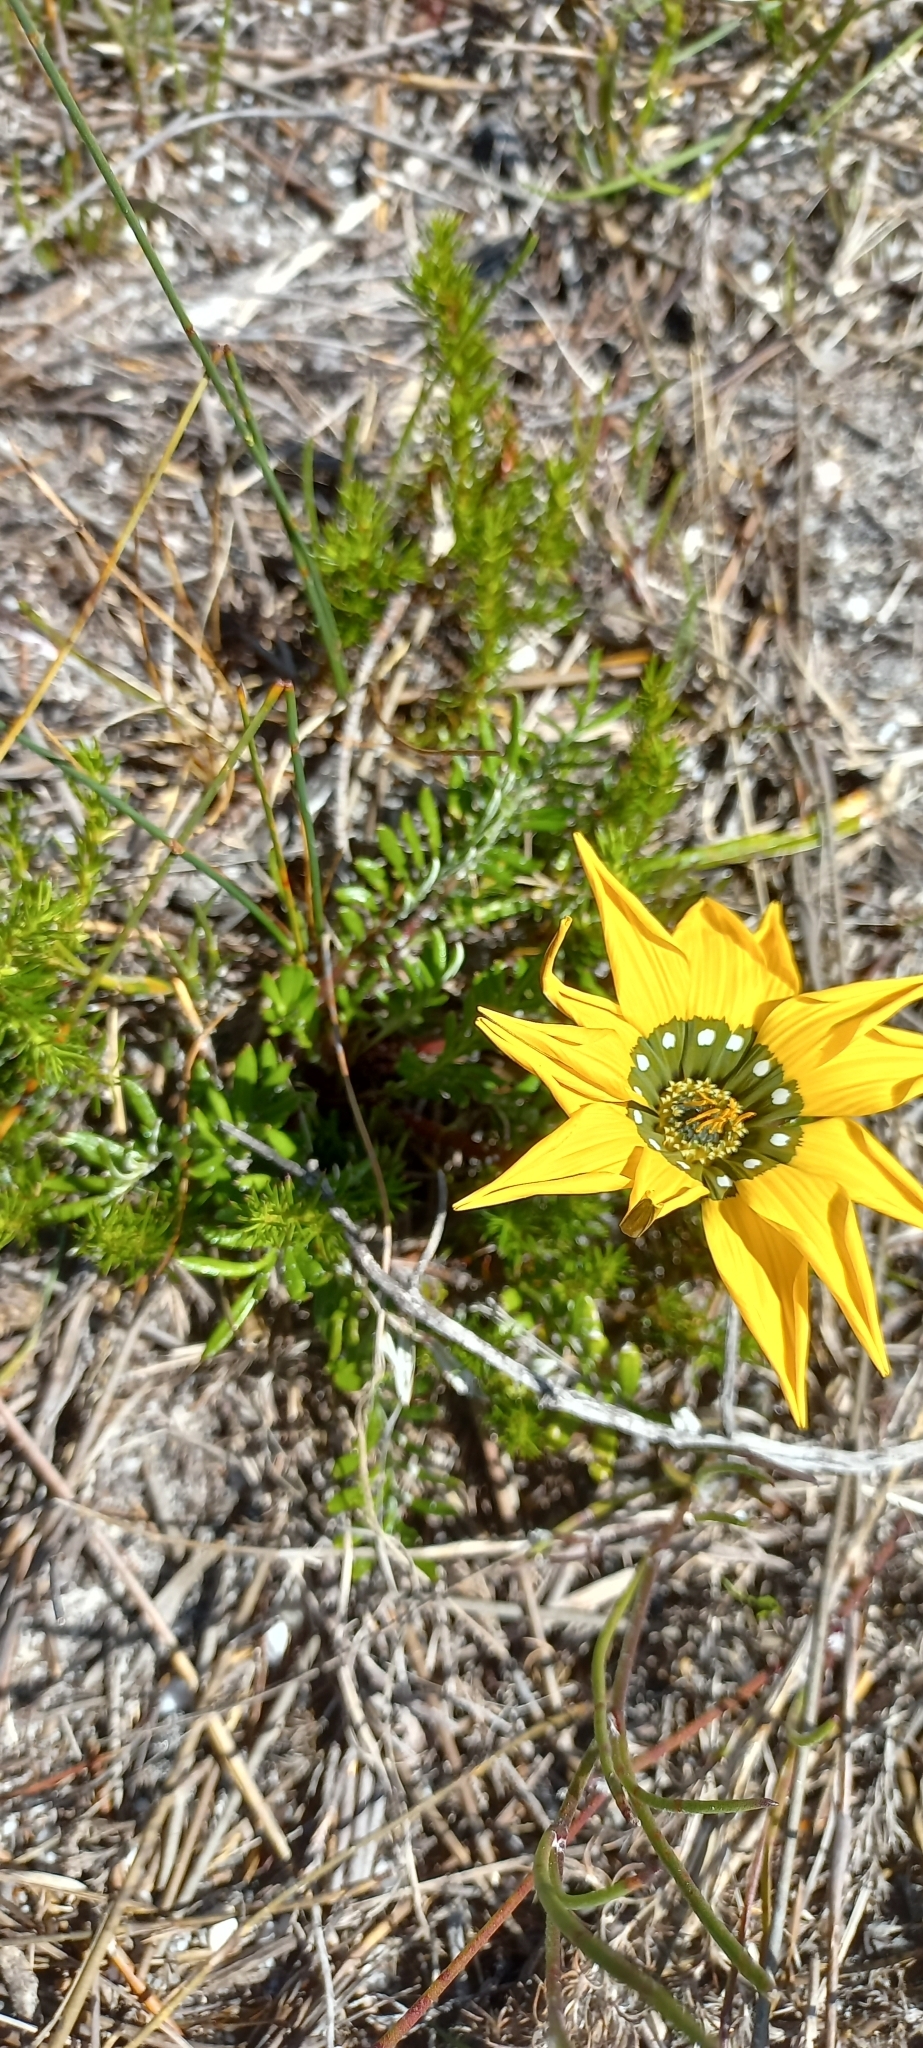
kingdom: Plantae
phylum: Tracheophyta
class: Magnoliopsida
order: Asterales
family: Asteraceae
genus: Gazania
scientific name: Gazania pectinata
